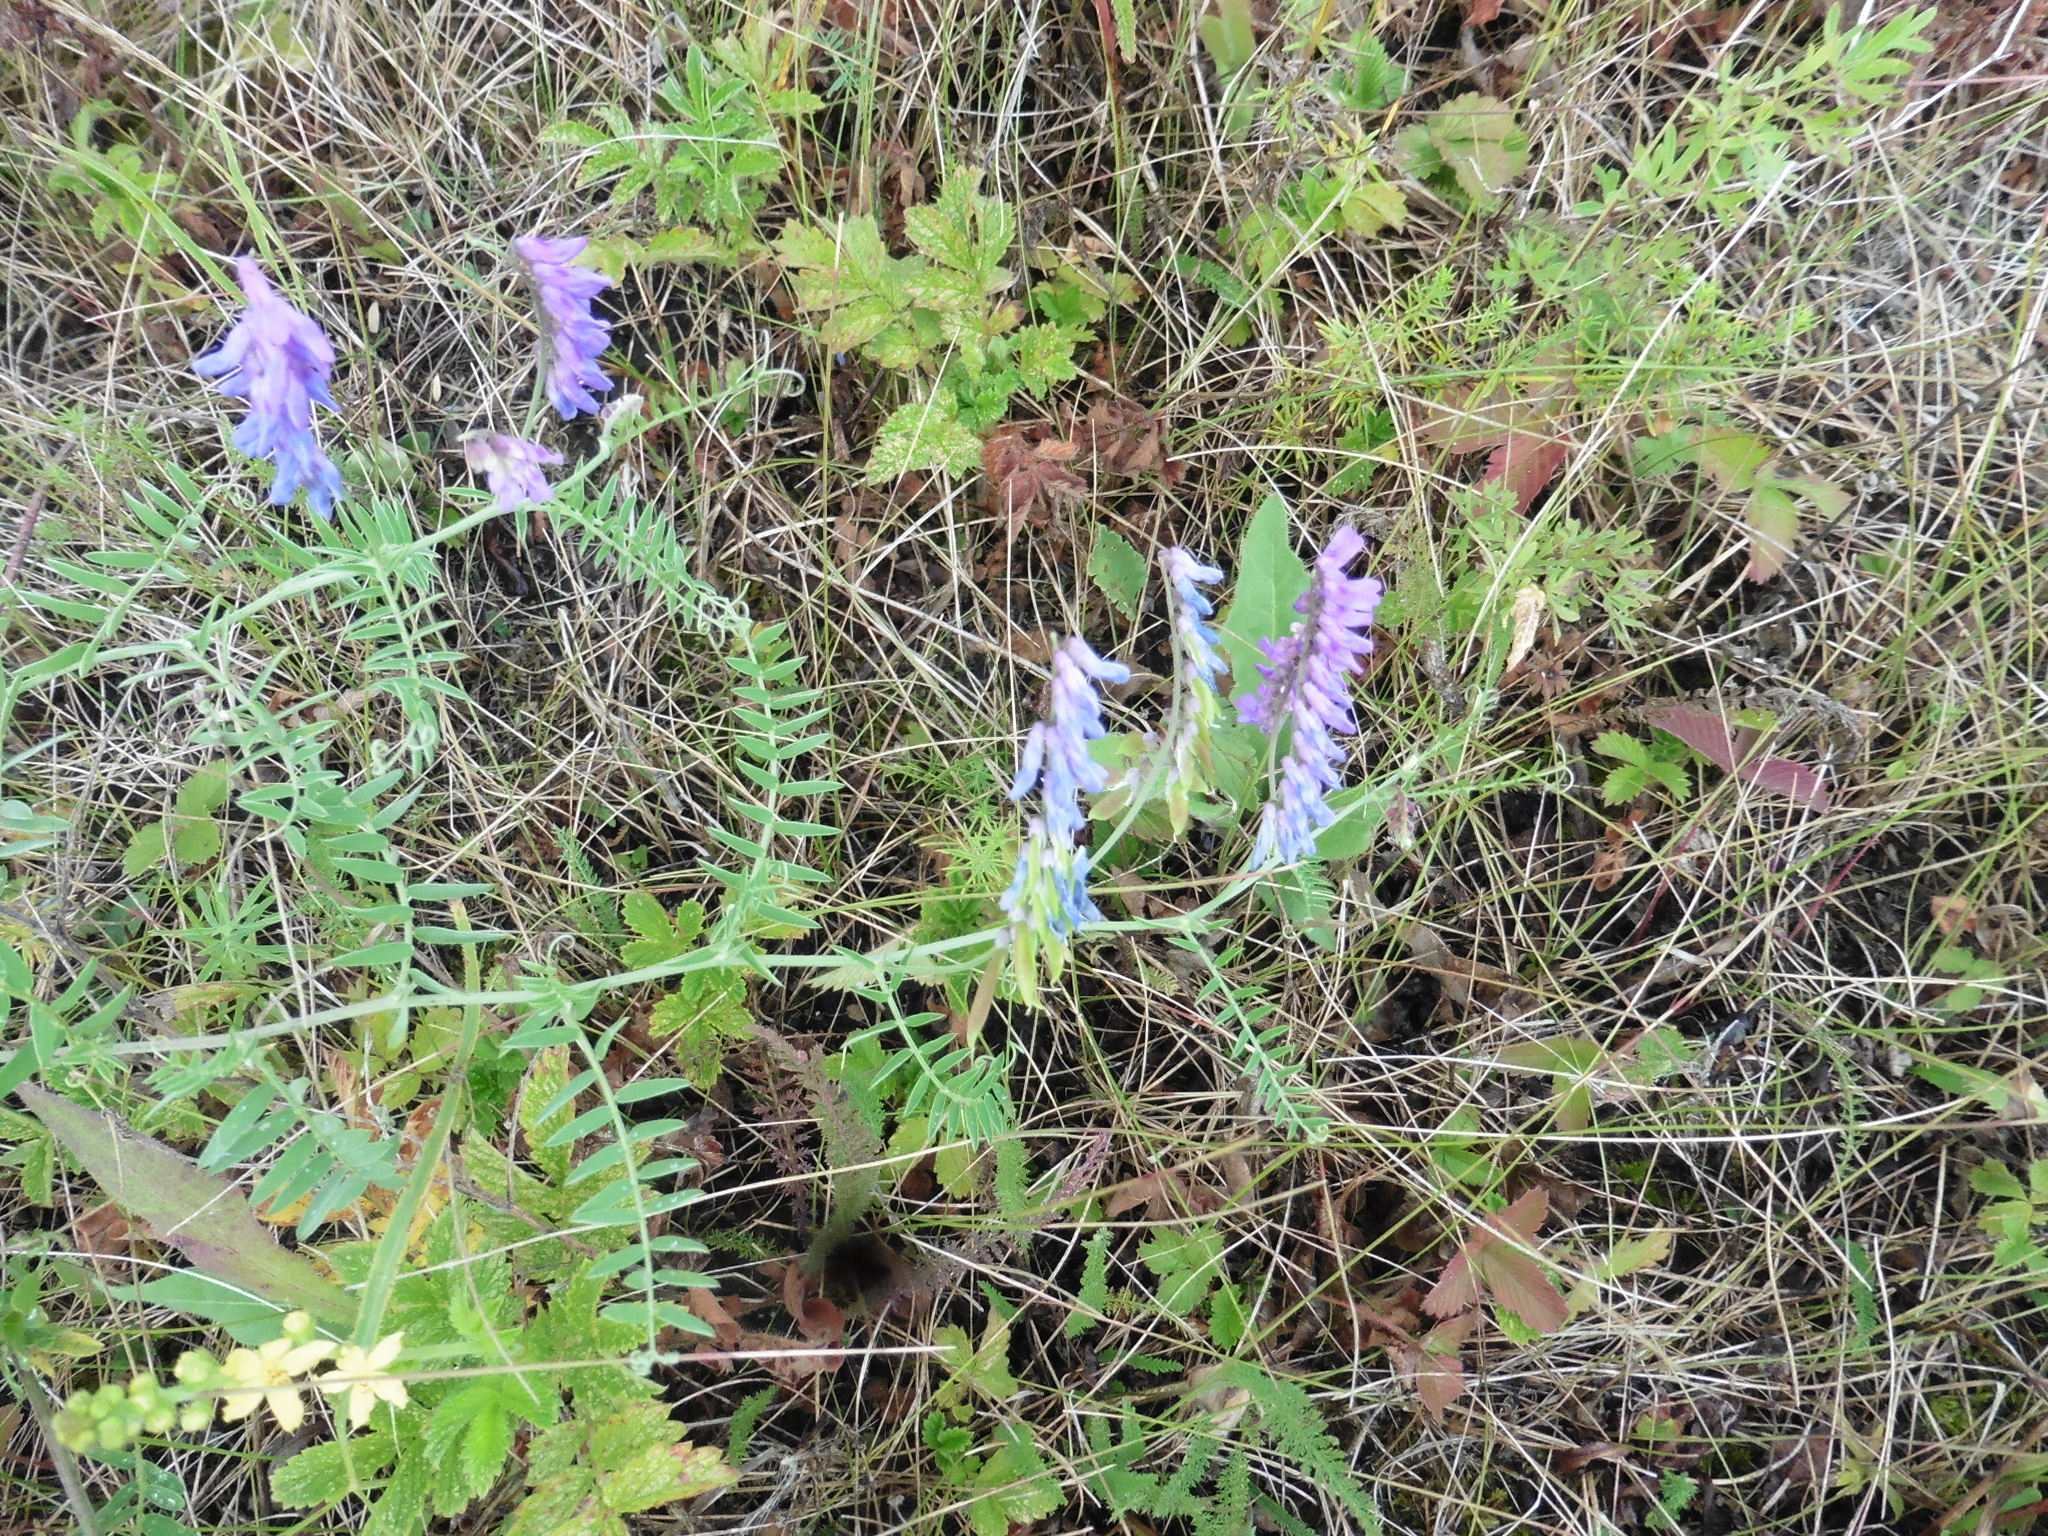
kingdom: Plantae
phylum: Tracheophyta
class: Magnoliopsida
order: Fabales
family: Fabaceae
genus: Vicia
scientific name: Vicia cracca
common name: Bird vetch
